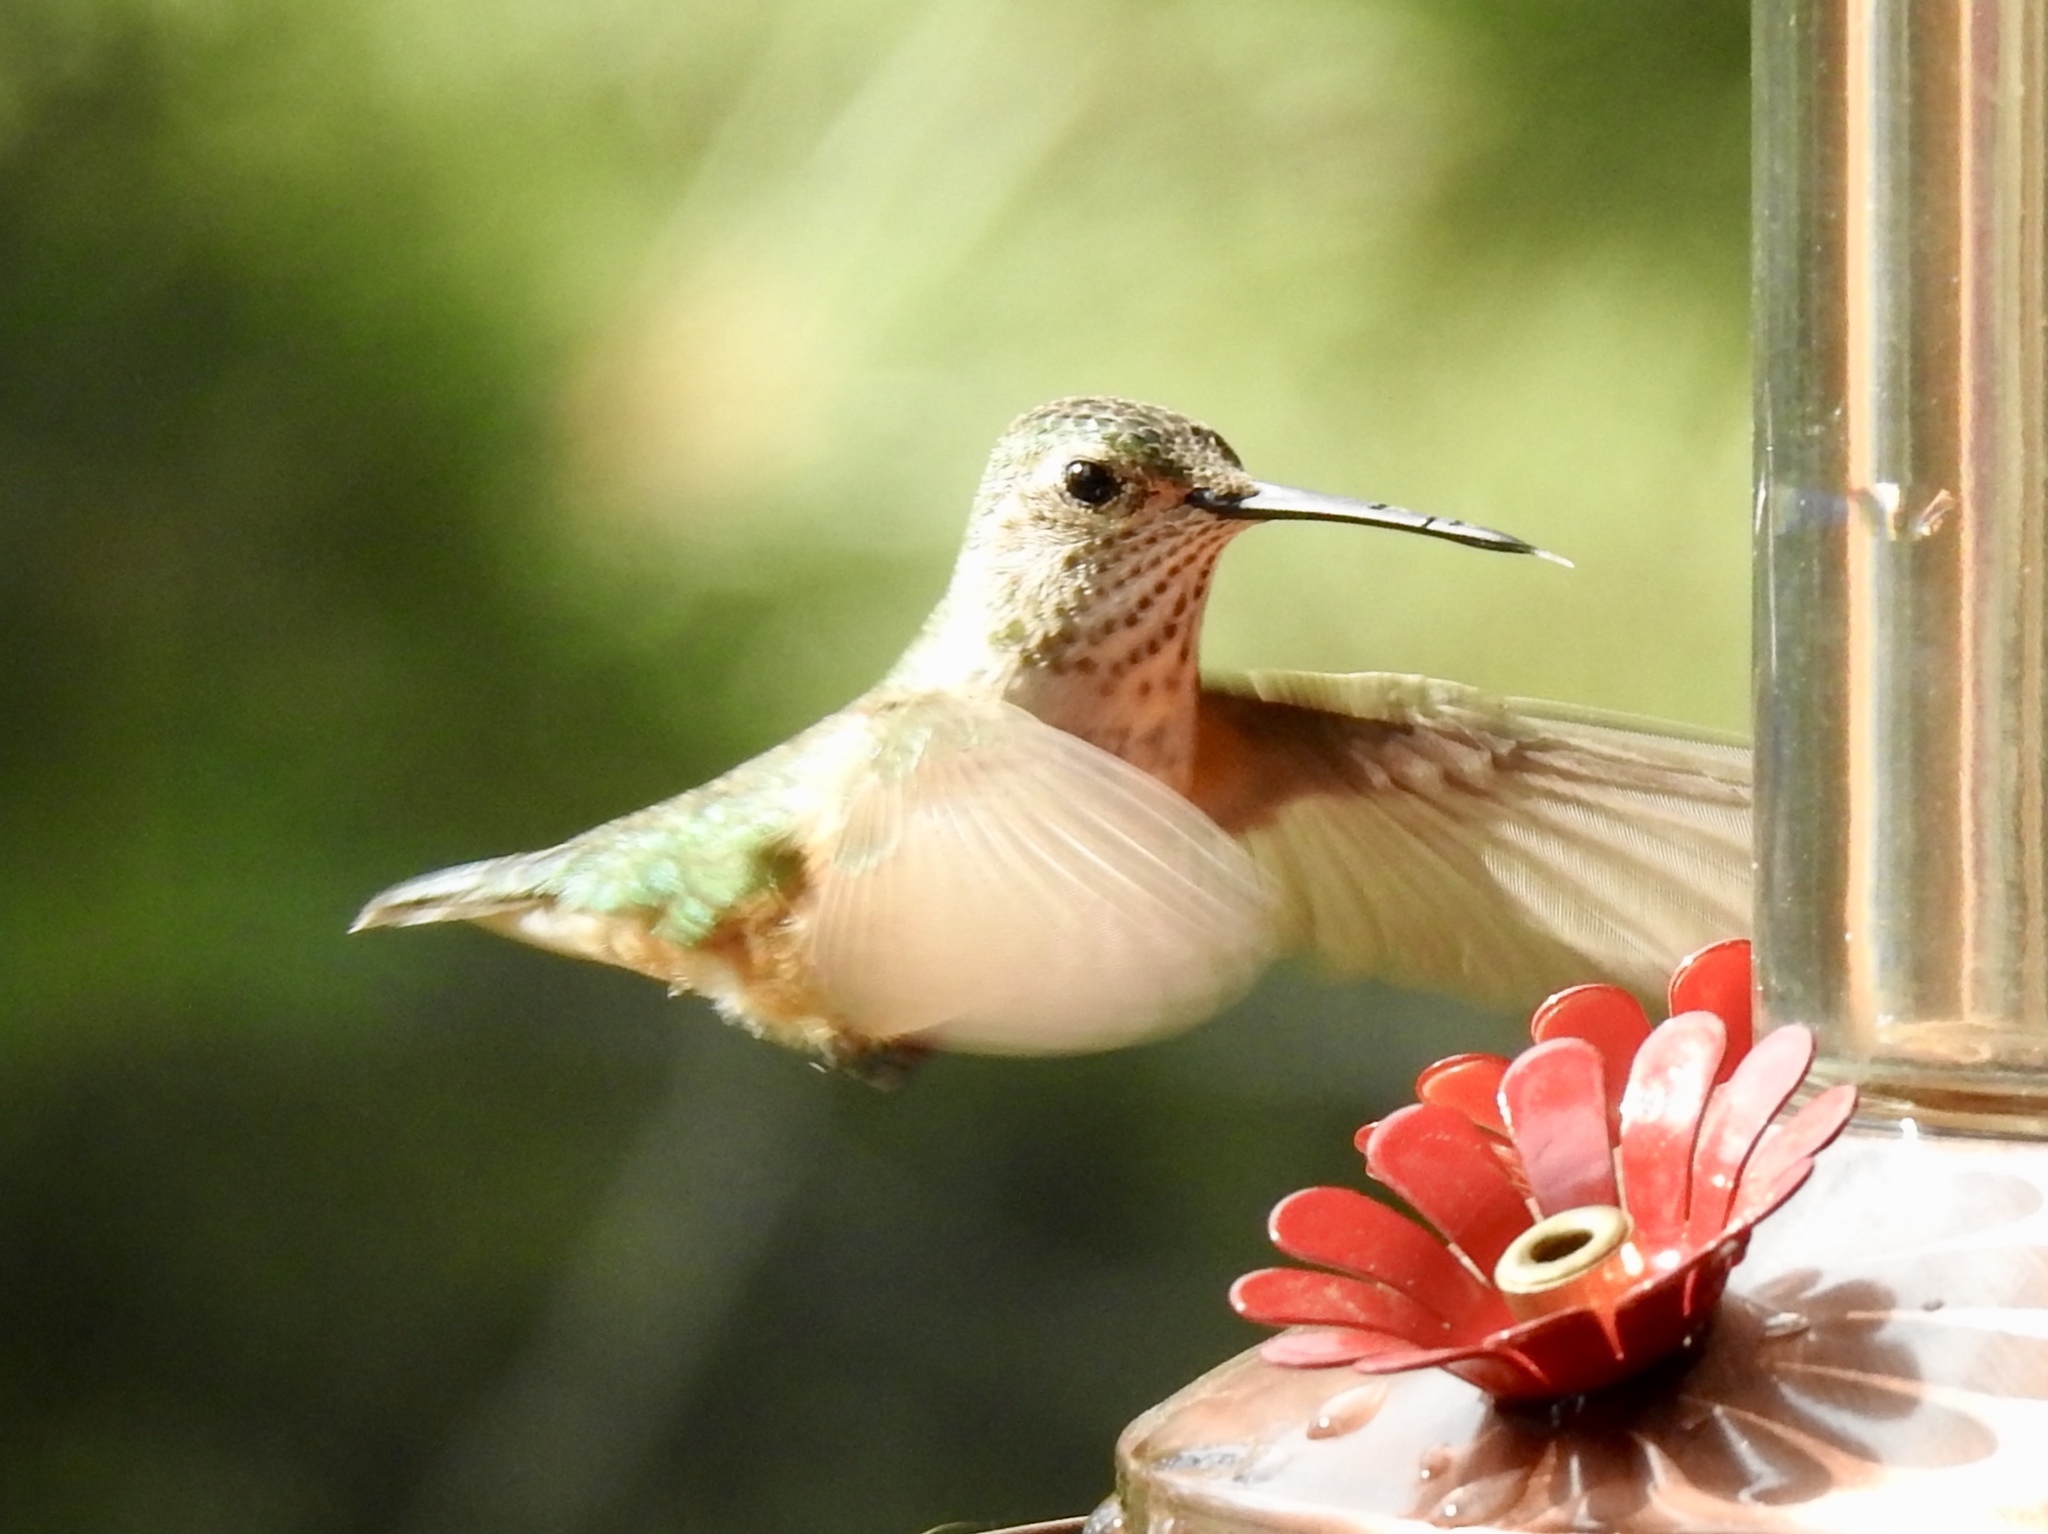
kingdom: Animalia
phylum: Chordata
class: Aves
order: Apodiformes
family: Trochilidae
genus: Selasphorus
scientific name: Selasphorus rufus
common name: Rufous hummingbird
